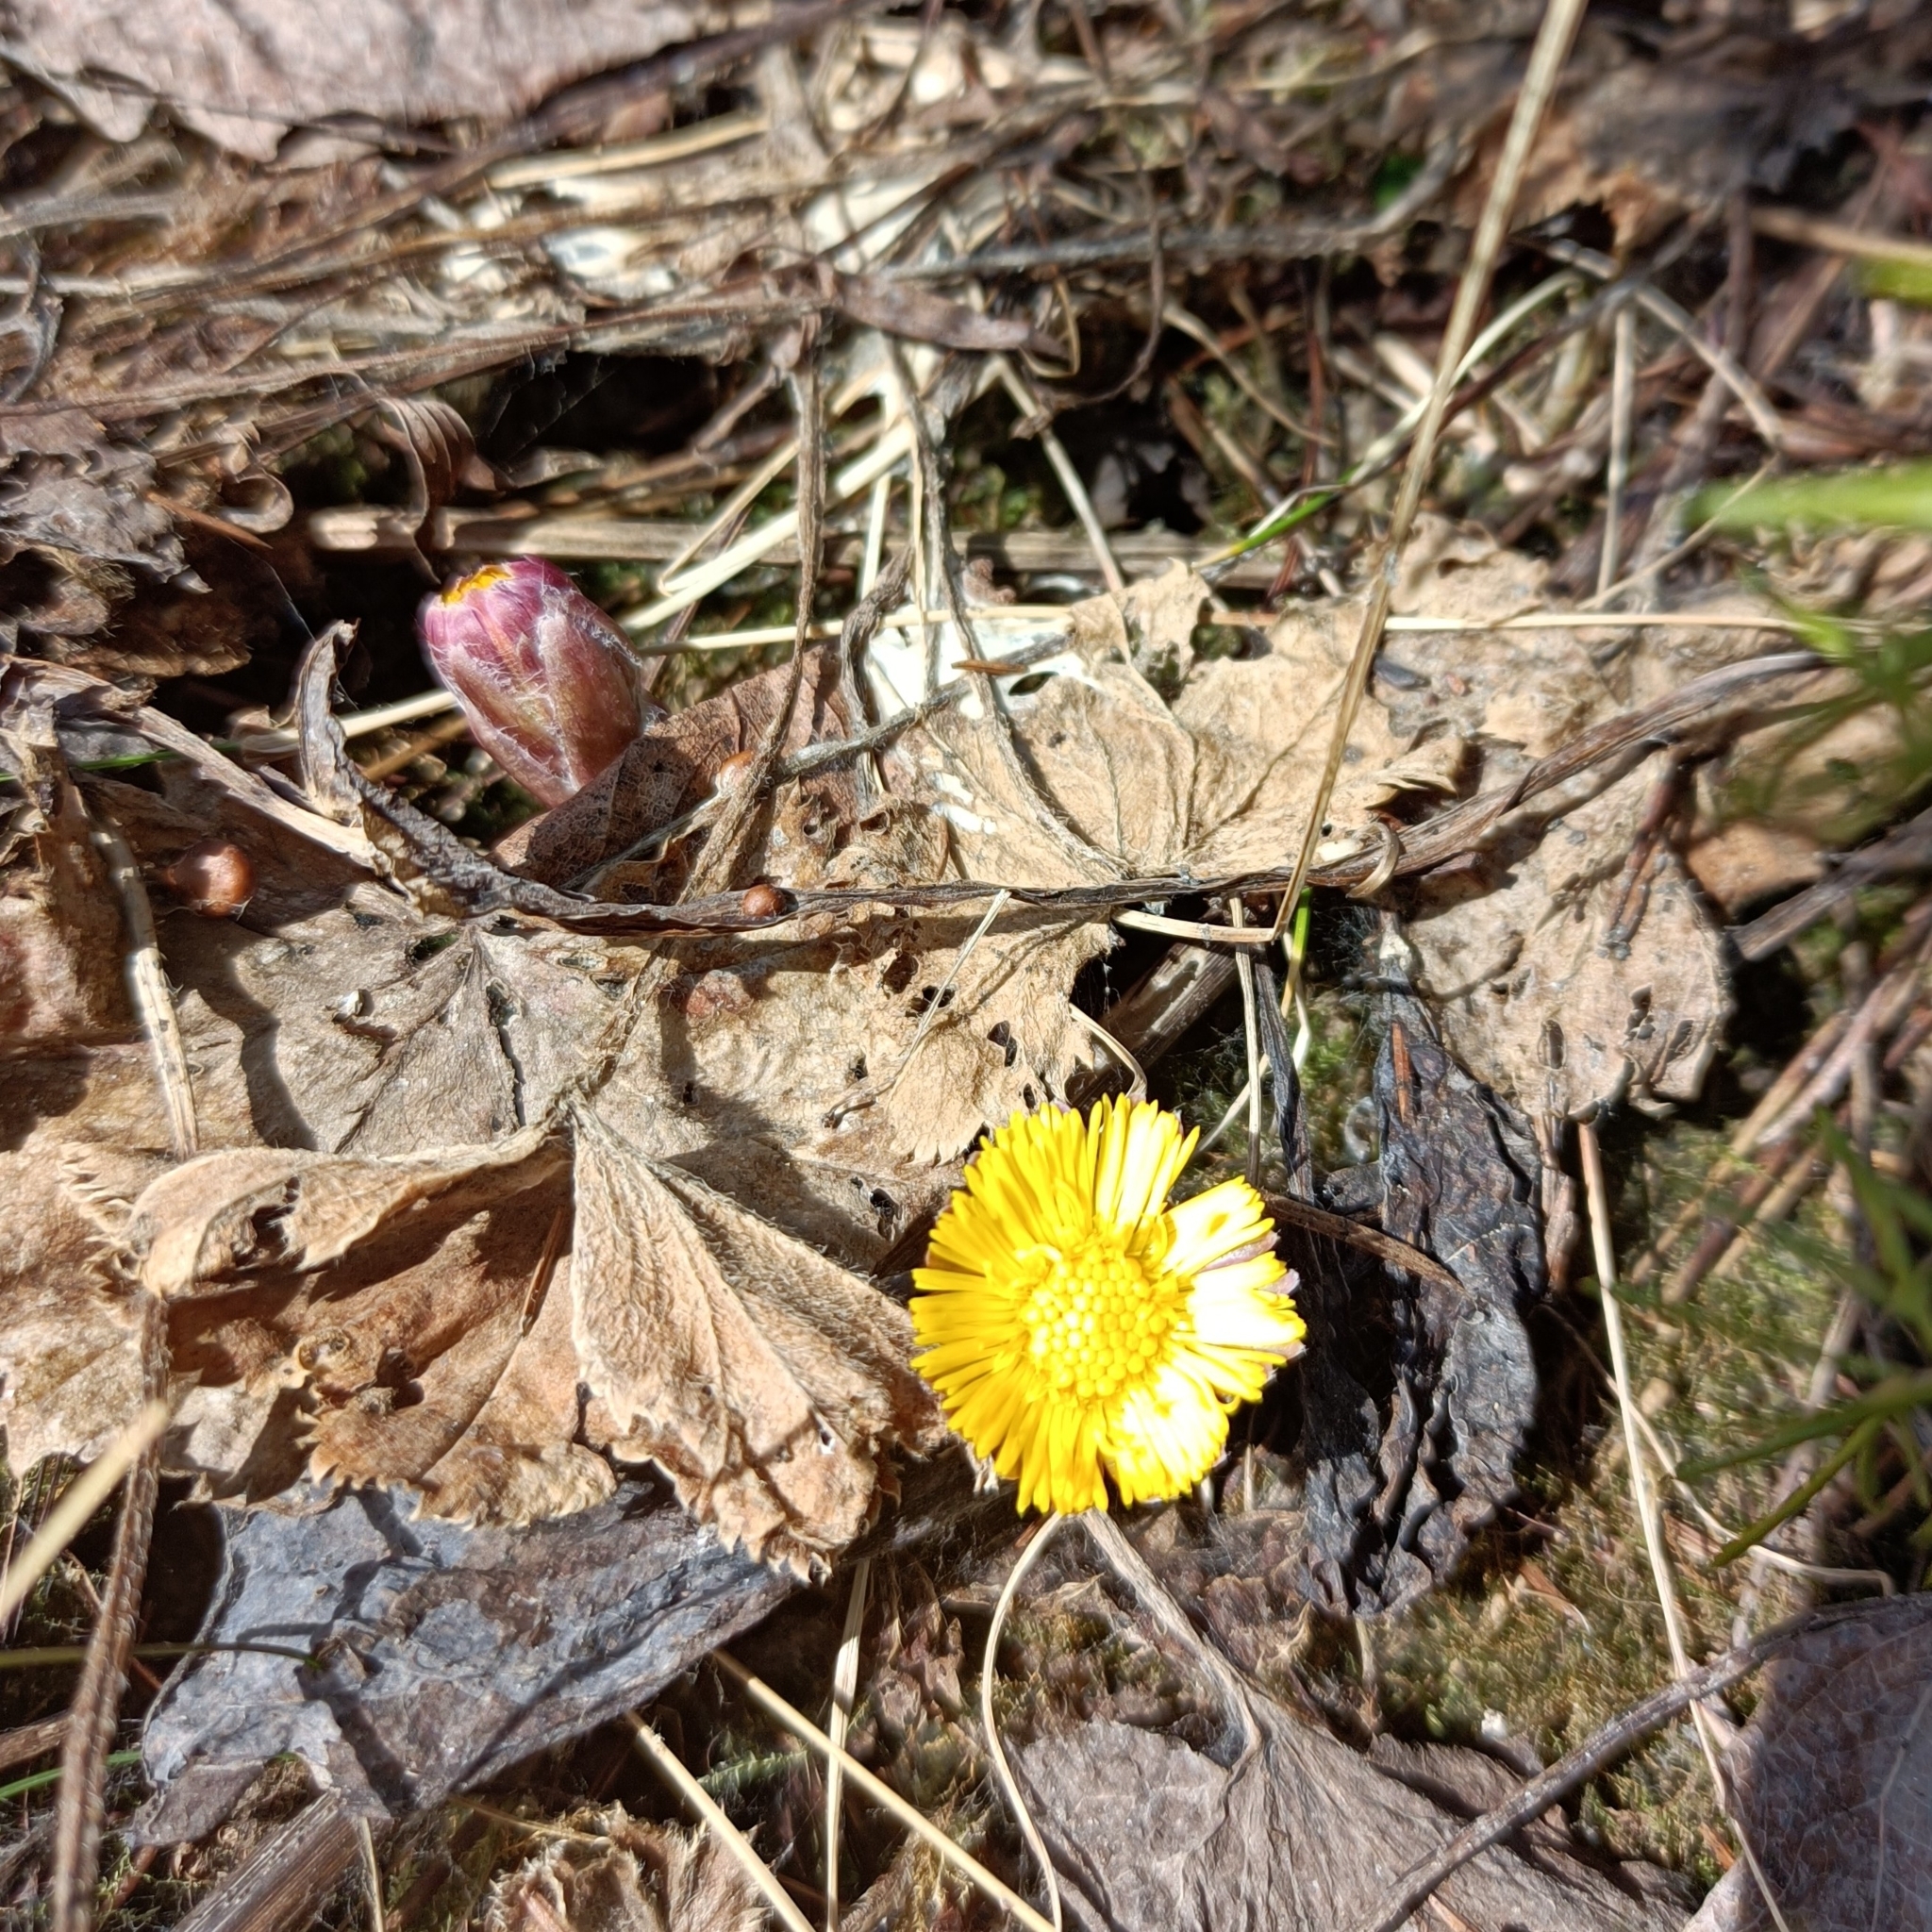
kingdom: Plantae
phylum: Tracheophyta
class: Magnoliopsida
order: Asterales
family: Asteraceae
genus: Tussilago
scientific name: Tussilago farfara
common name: Coltsfoot
